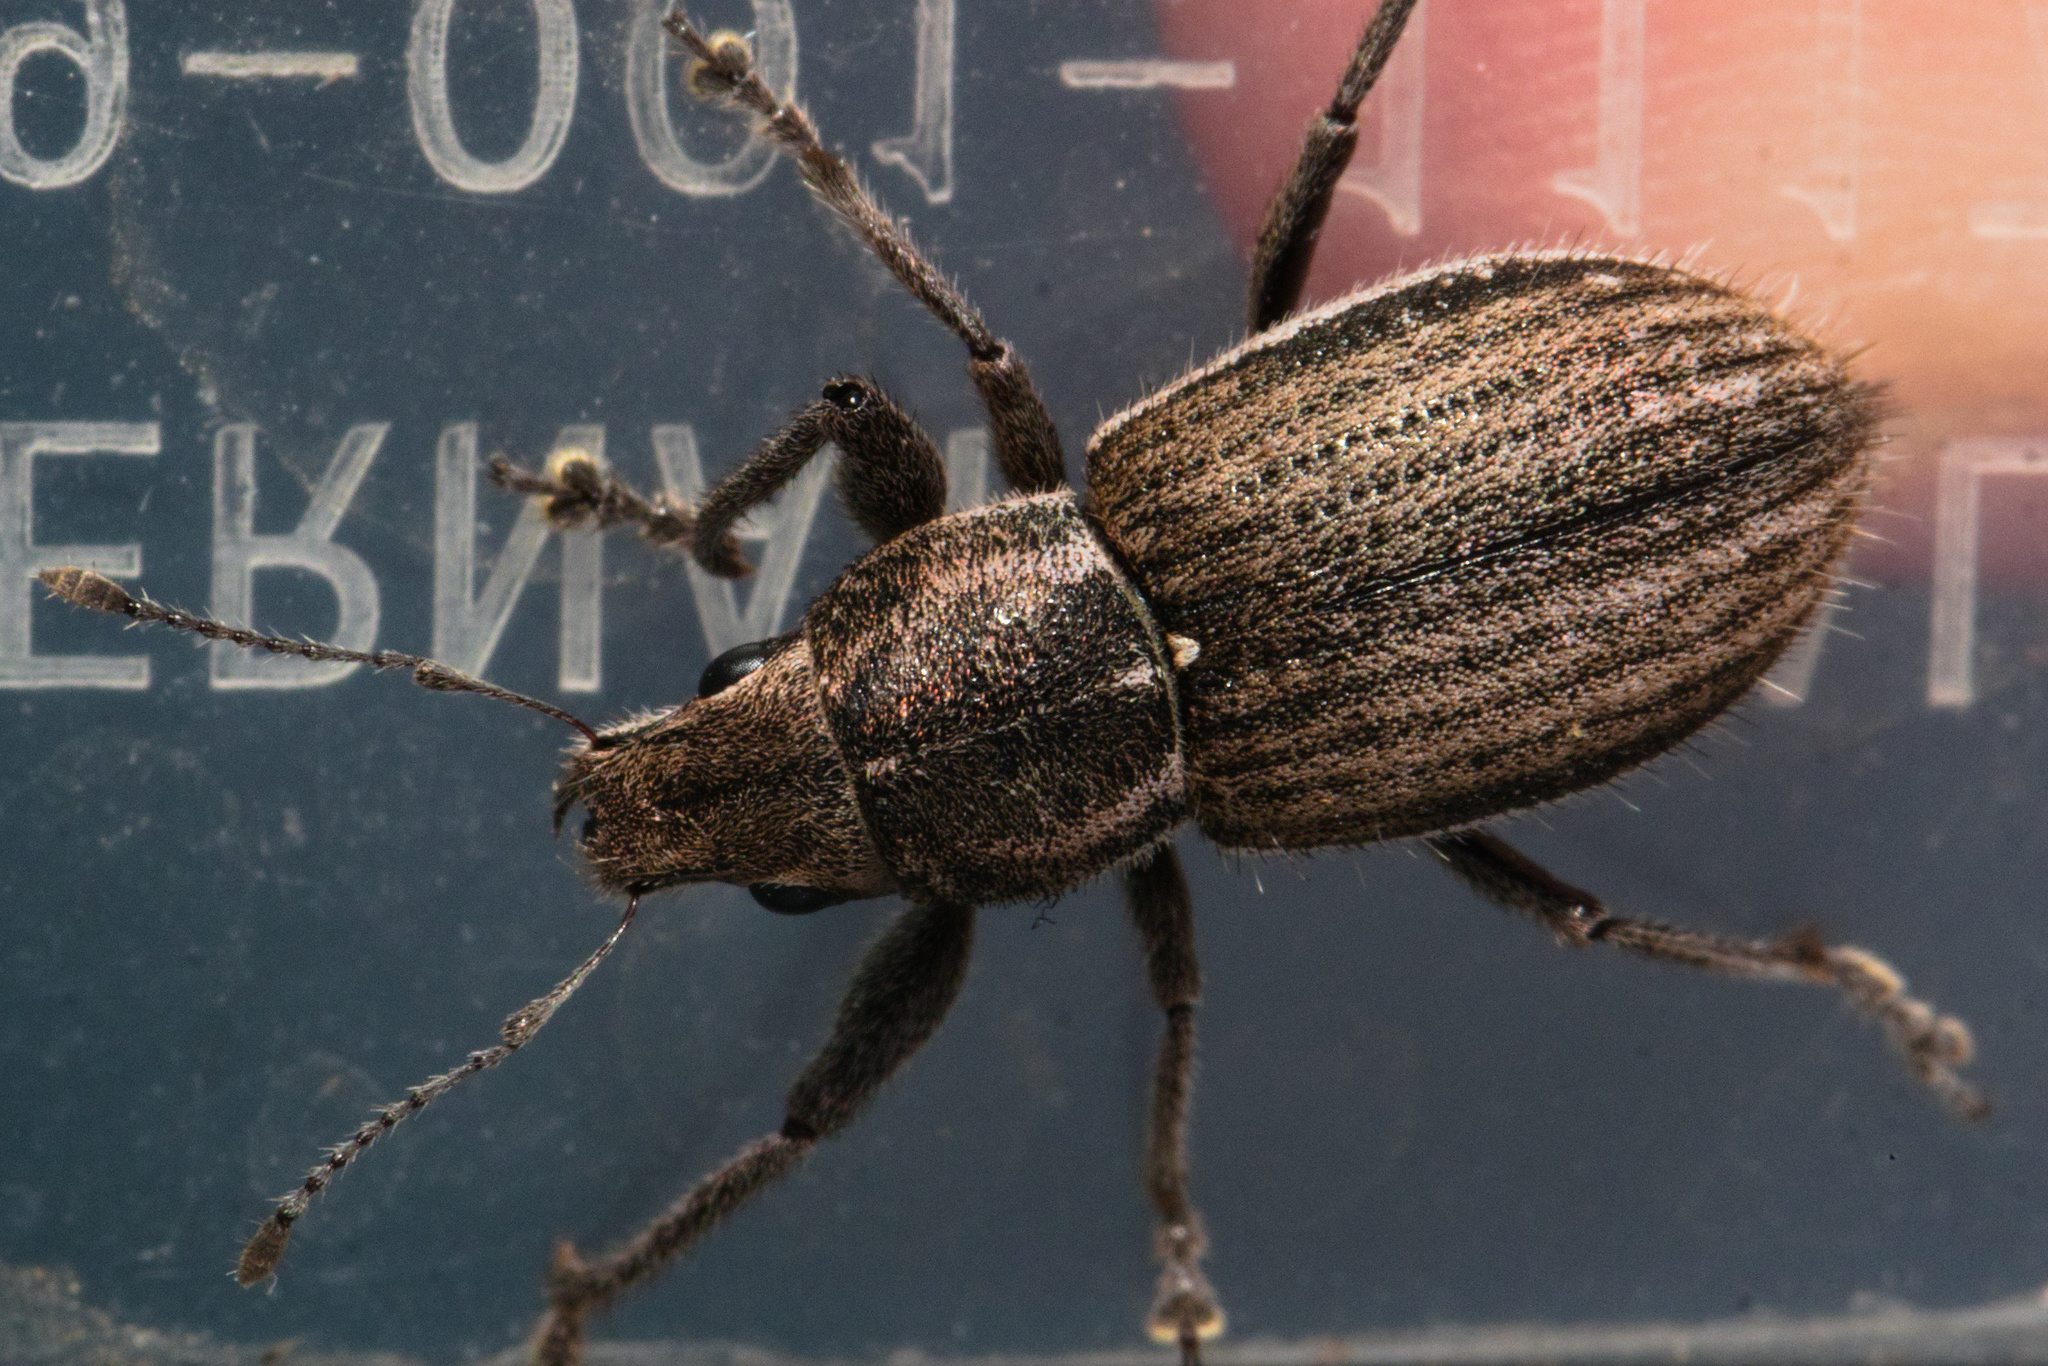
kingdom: Animalia
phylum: Arthropoda
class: Insecta
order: Coleoptera
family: Curculionidae
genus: Naupactus
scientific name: Naupactus leucoloma
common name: Whitefringed beetle
